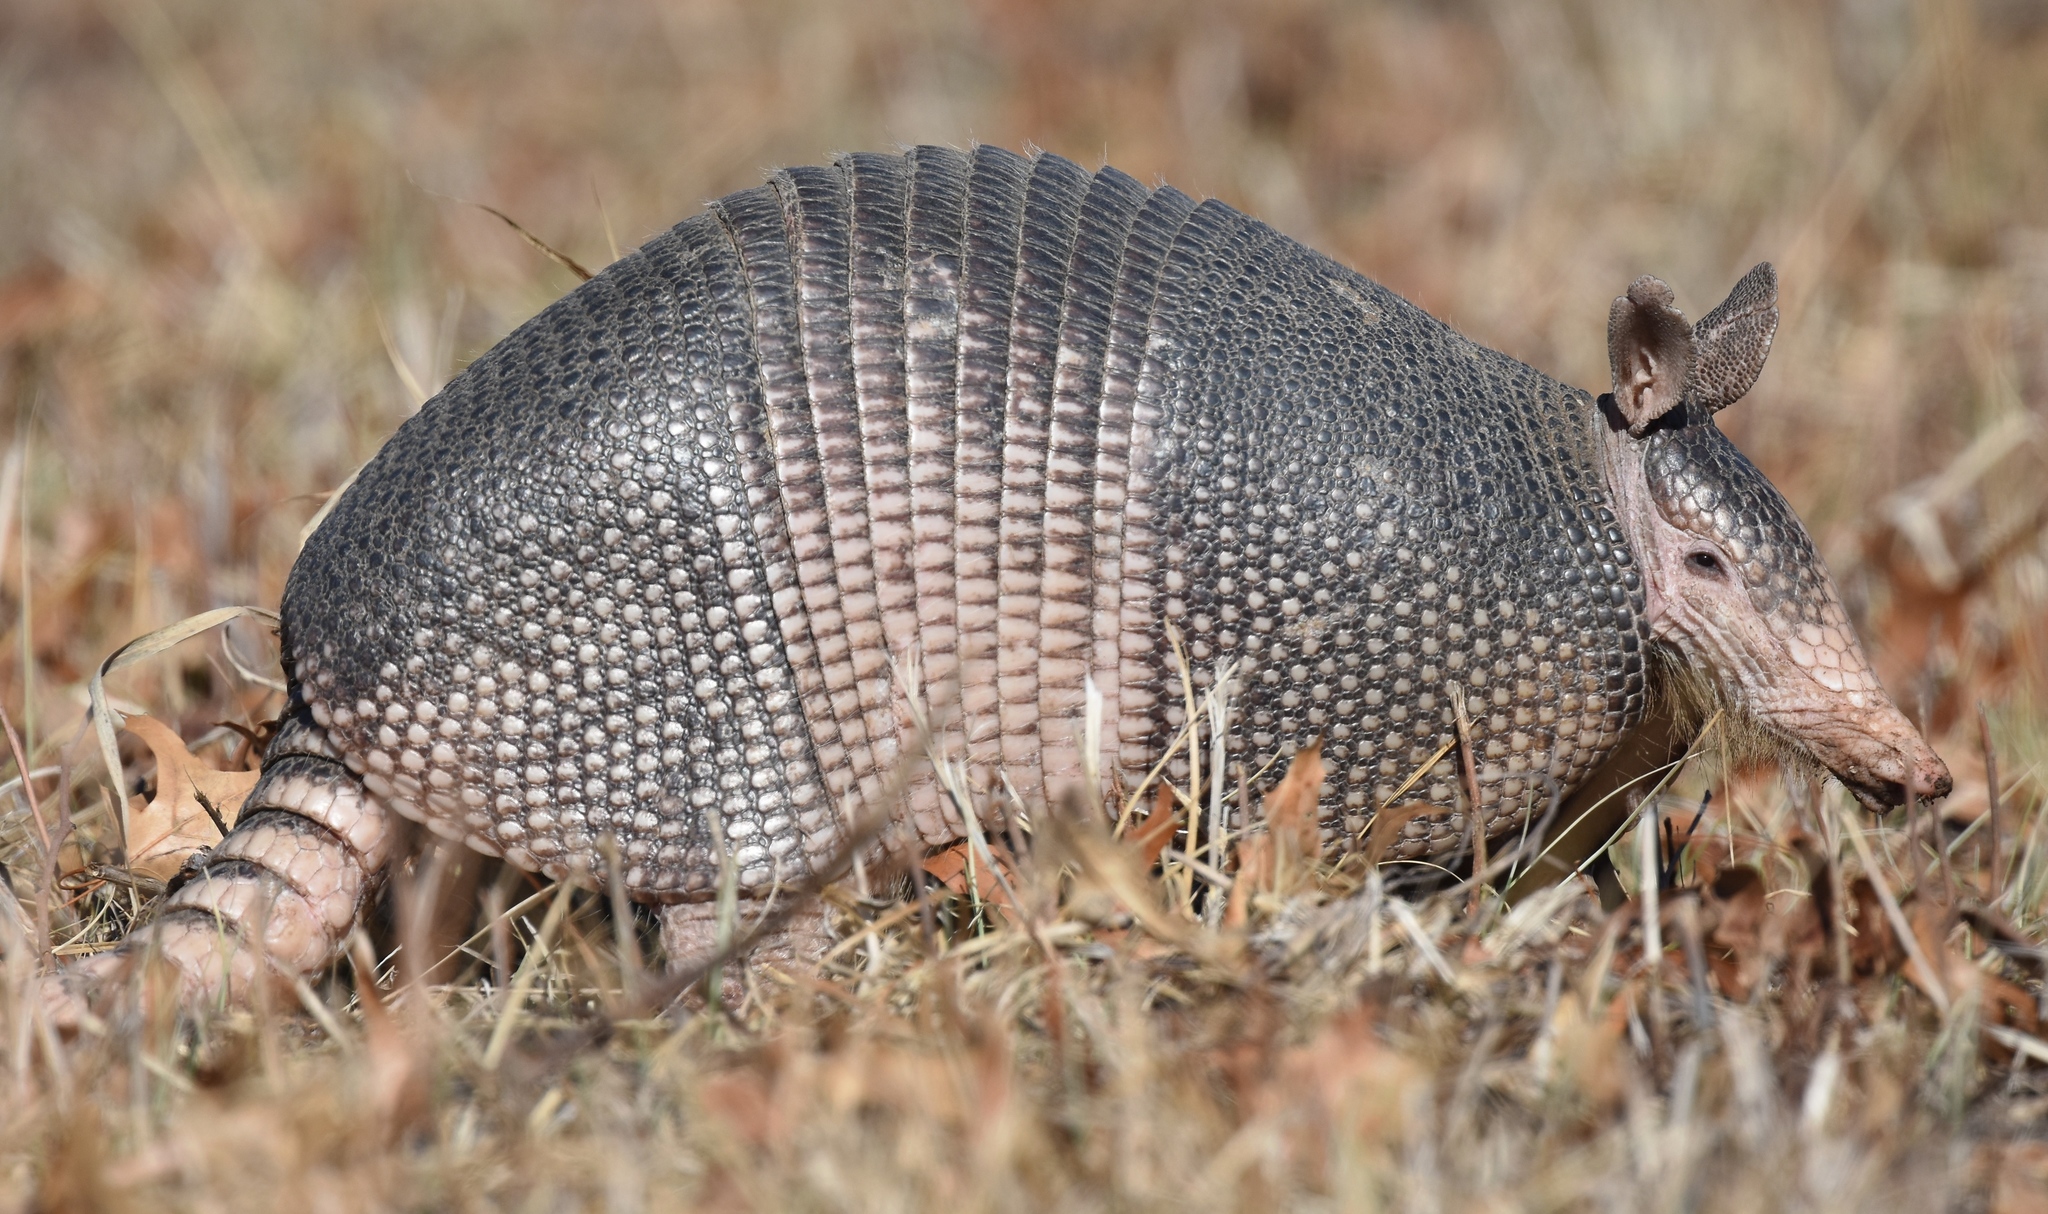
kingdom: Animalia
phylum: Chordata
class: Mammalia
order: Cingulata
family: Dasypodidae
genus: Dasypus
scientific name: Dasypus novemcinctus
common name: Nine-banded armadillo
